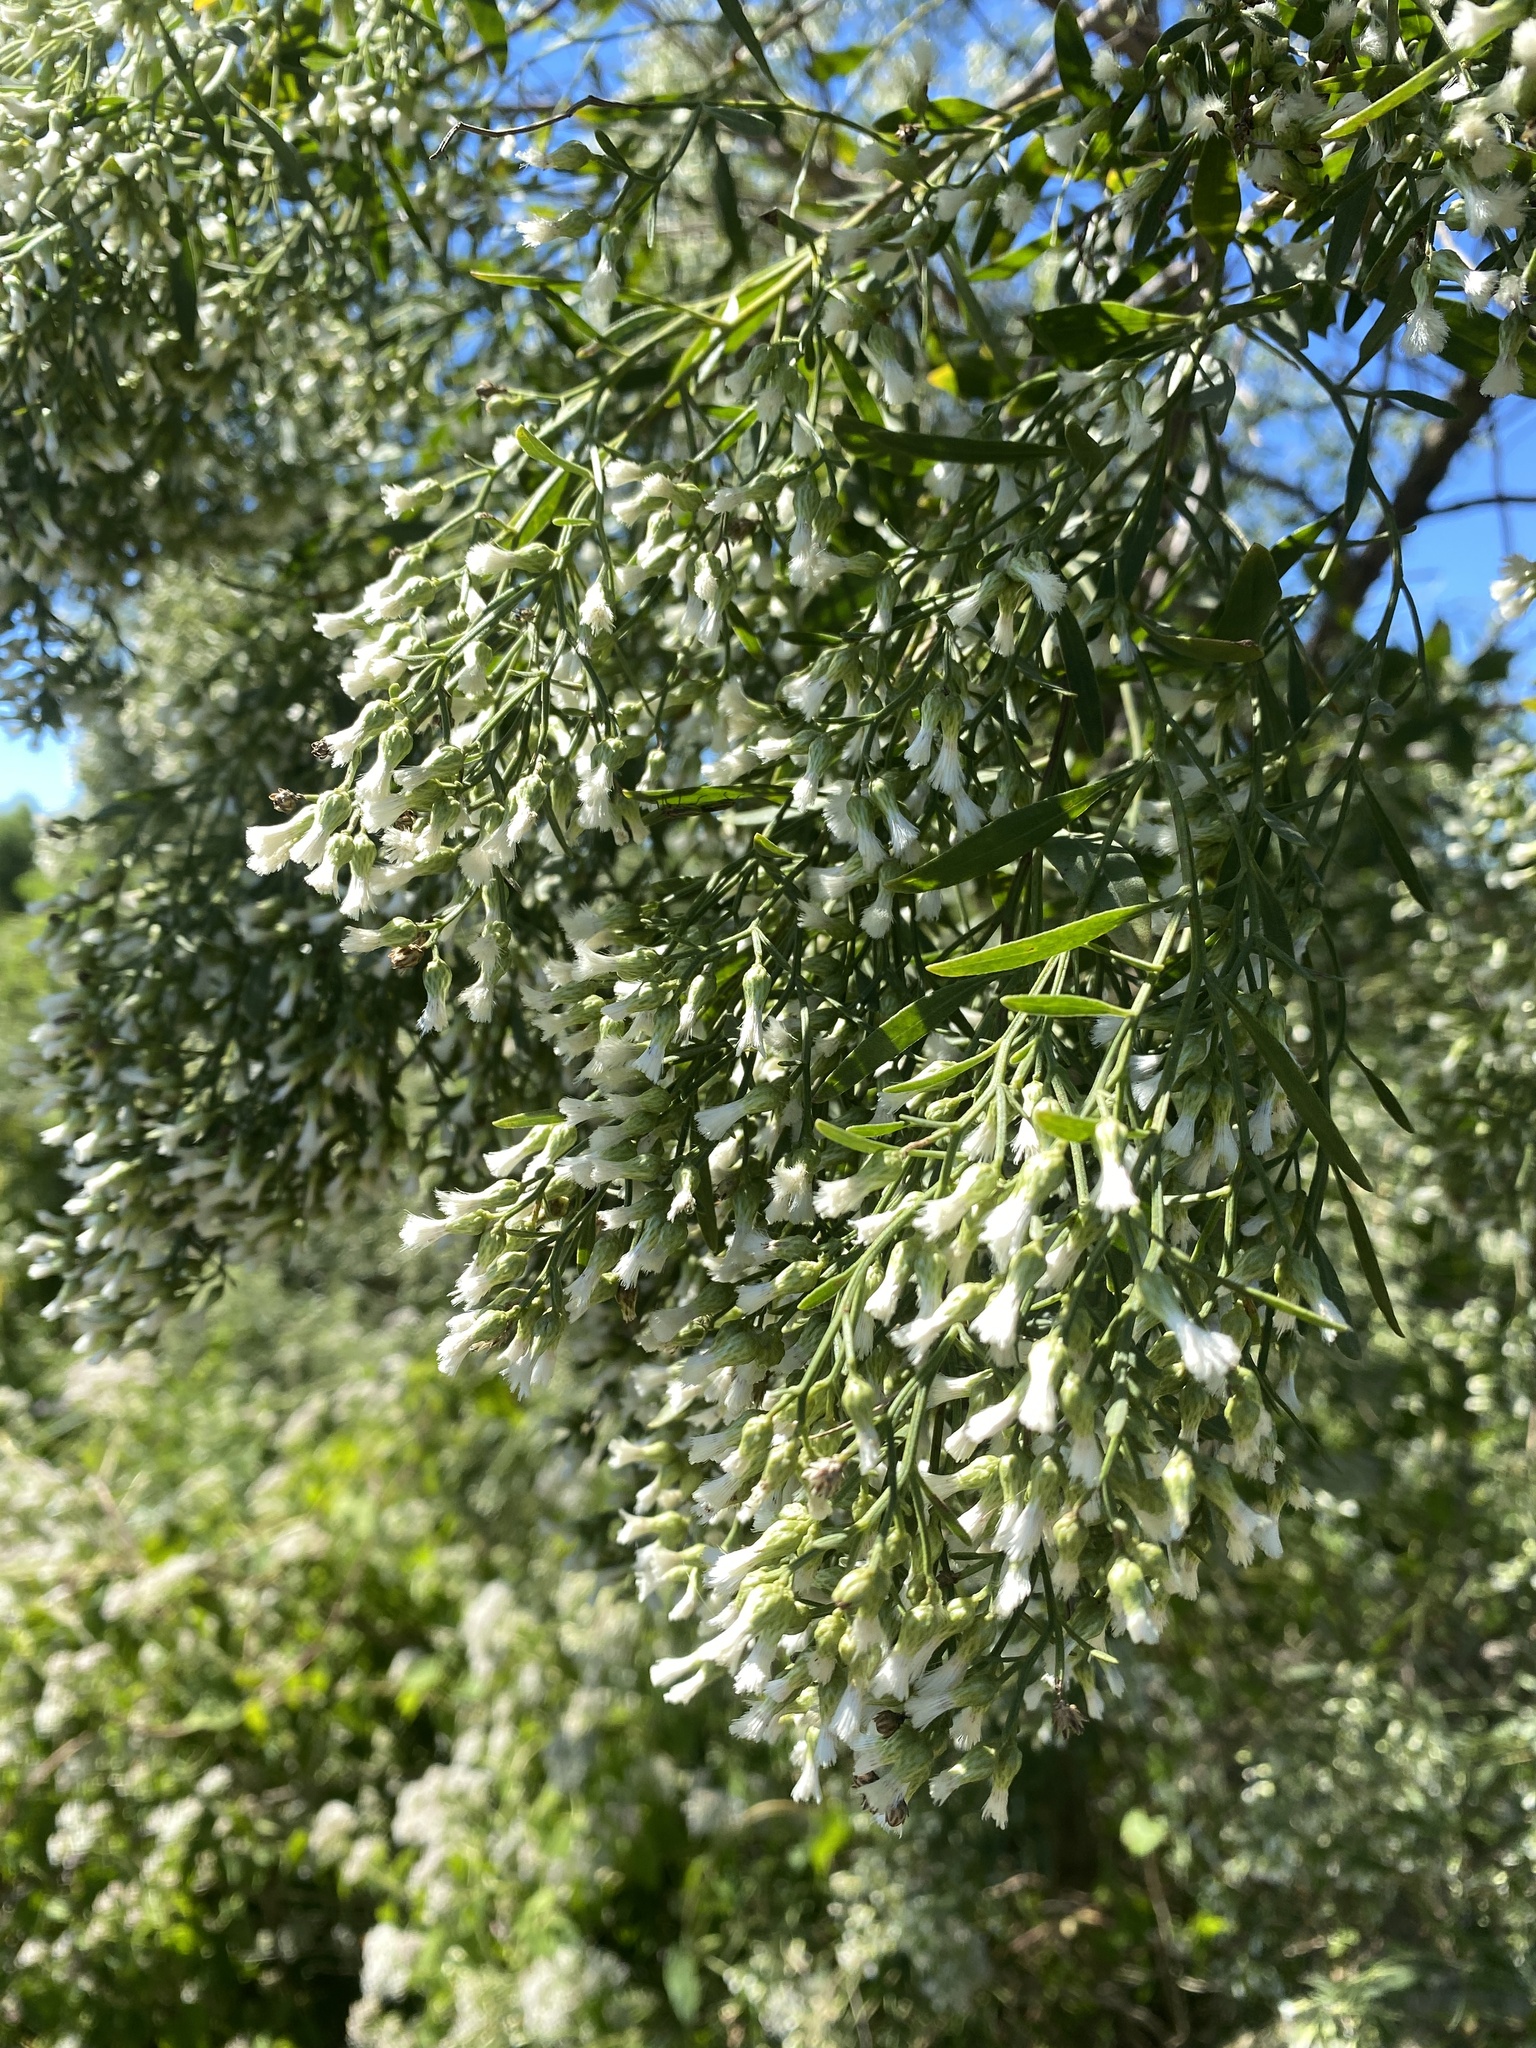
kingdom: Plantae
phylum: Tracheophyta
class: Magnoliopsida
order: Asterales
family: Asteraceae
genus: Baccharis
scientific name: Baccharis halimifolia
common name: Eastern baccharis
